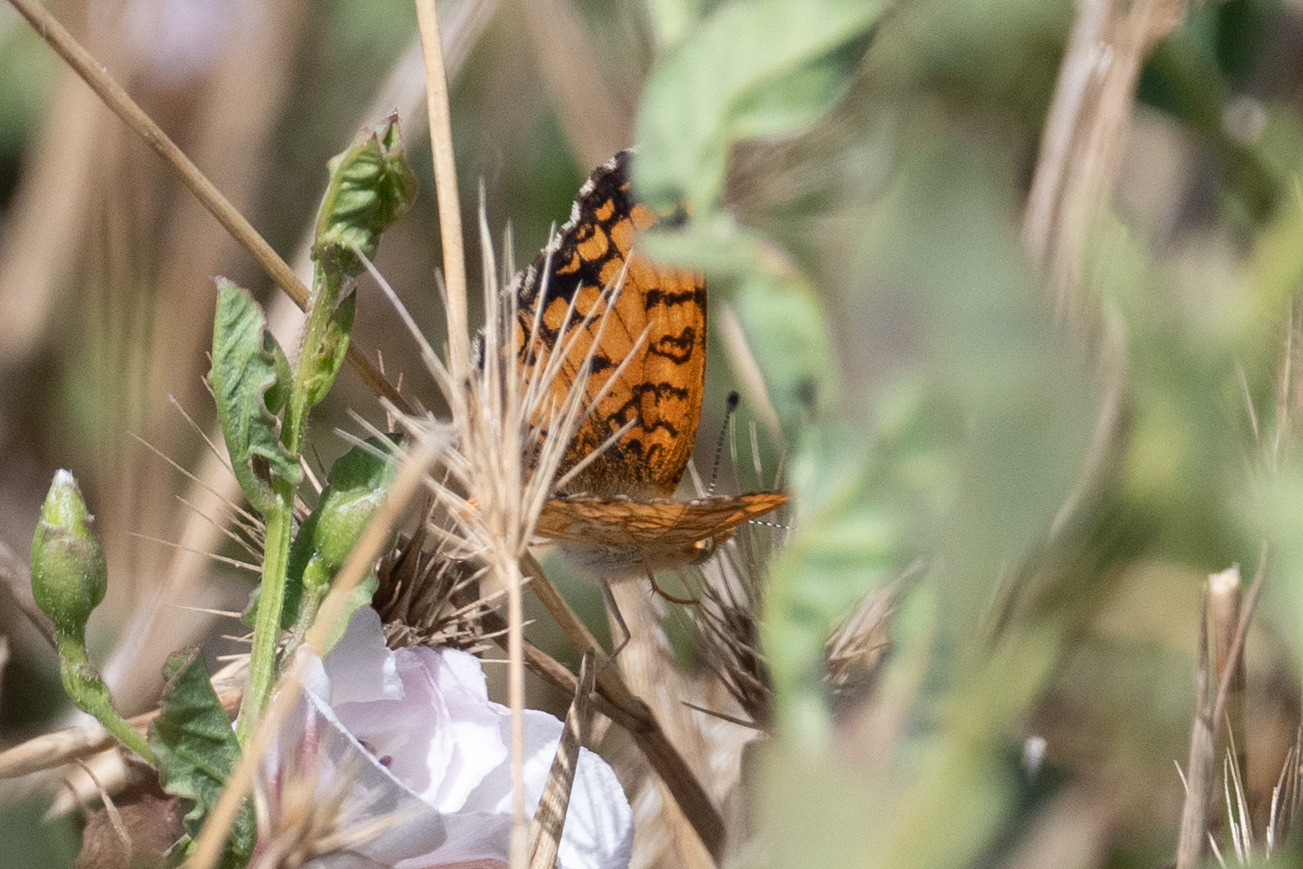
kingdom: Animalia
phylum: Arthropoda
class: Insecta
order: Lepidoptera
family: Nymphalidae
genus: Eresia
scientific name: Eresia aveyrona
